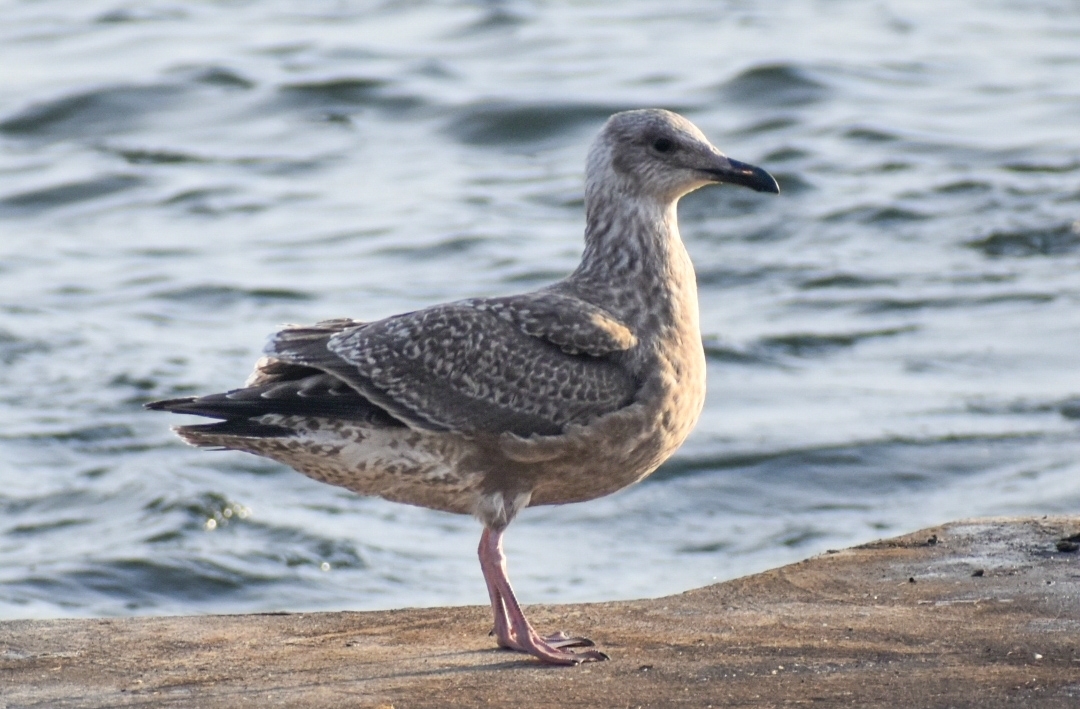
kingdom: Animalia
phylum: Chordata
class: Aves
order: Charadriiformes
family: Laridae
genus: Larus
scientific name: Larus schistisagus
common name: Slaty-backed gull
